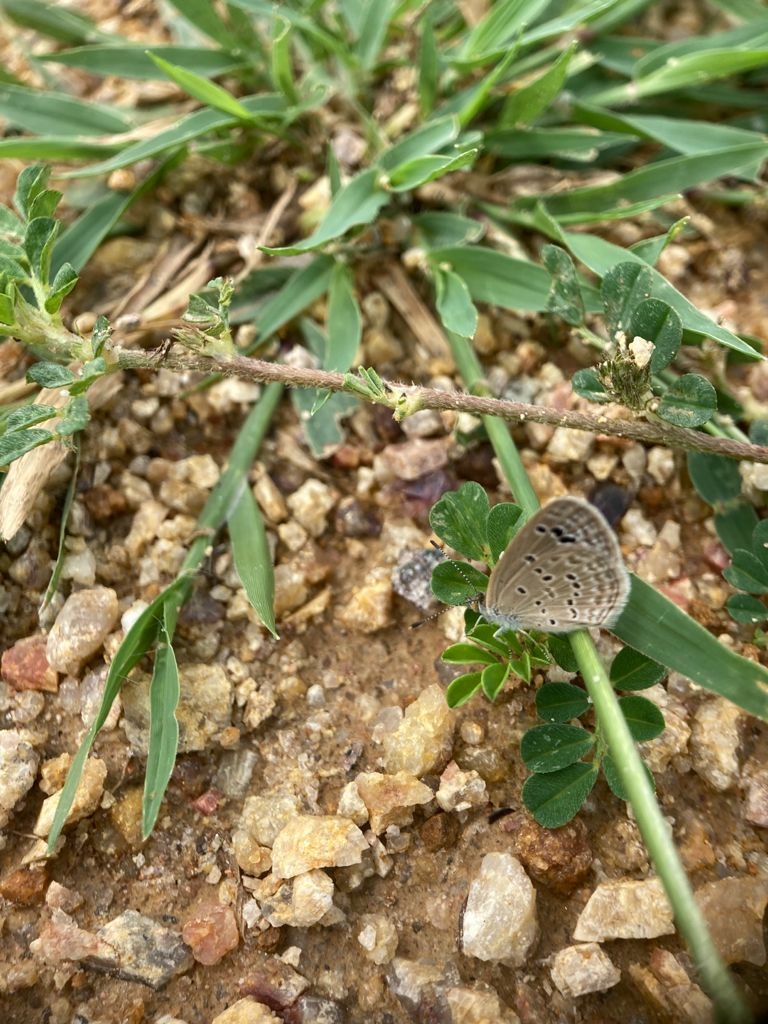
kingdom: Animalia
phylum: Arthropoda
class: Insecta
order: Lepidoptera
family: Lycaenidae
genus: Zizina
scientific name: Zizina otis
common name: Lesser grass blue
